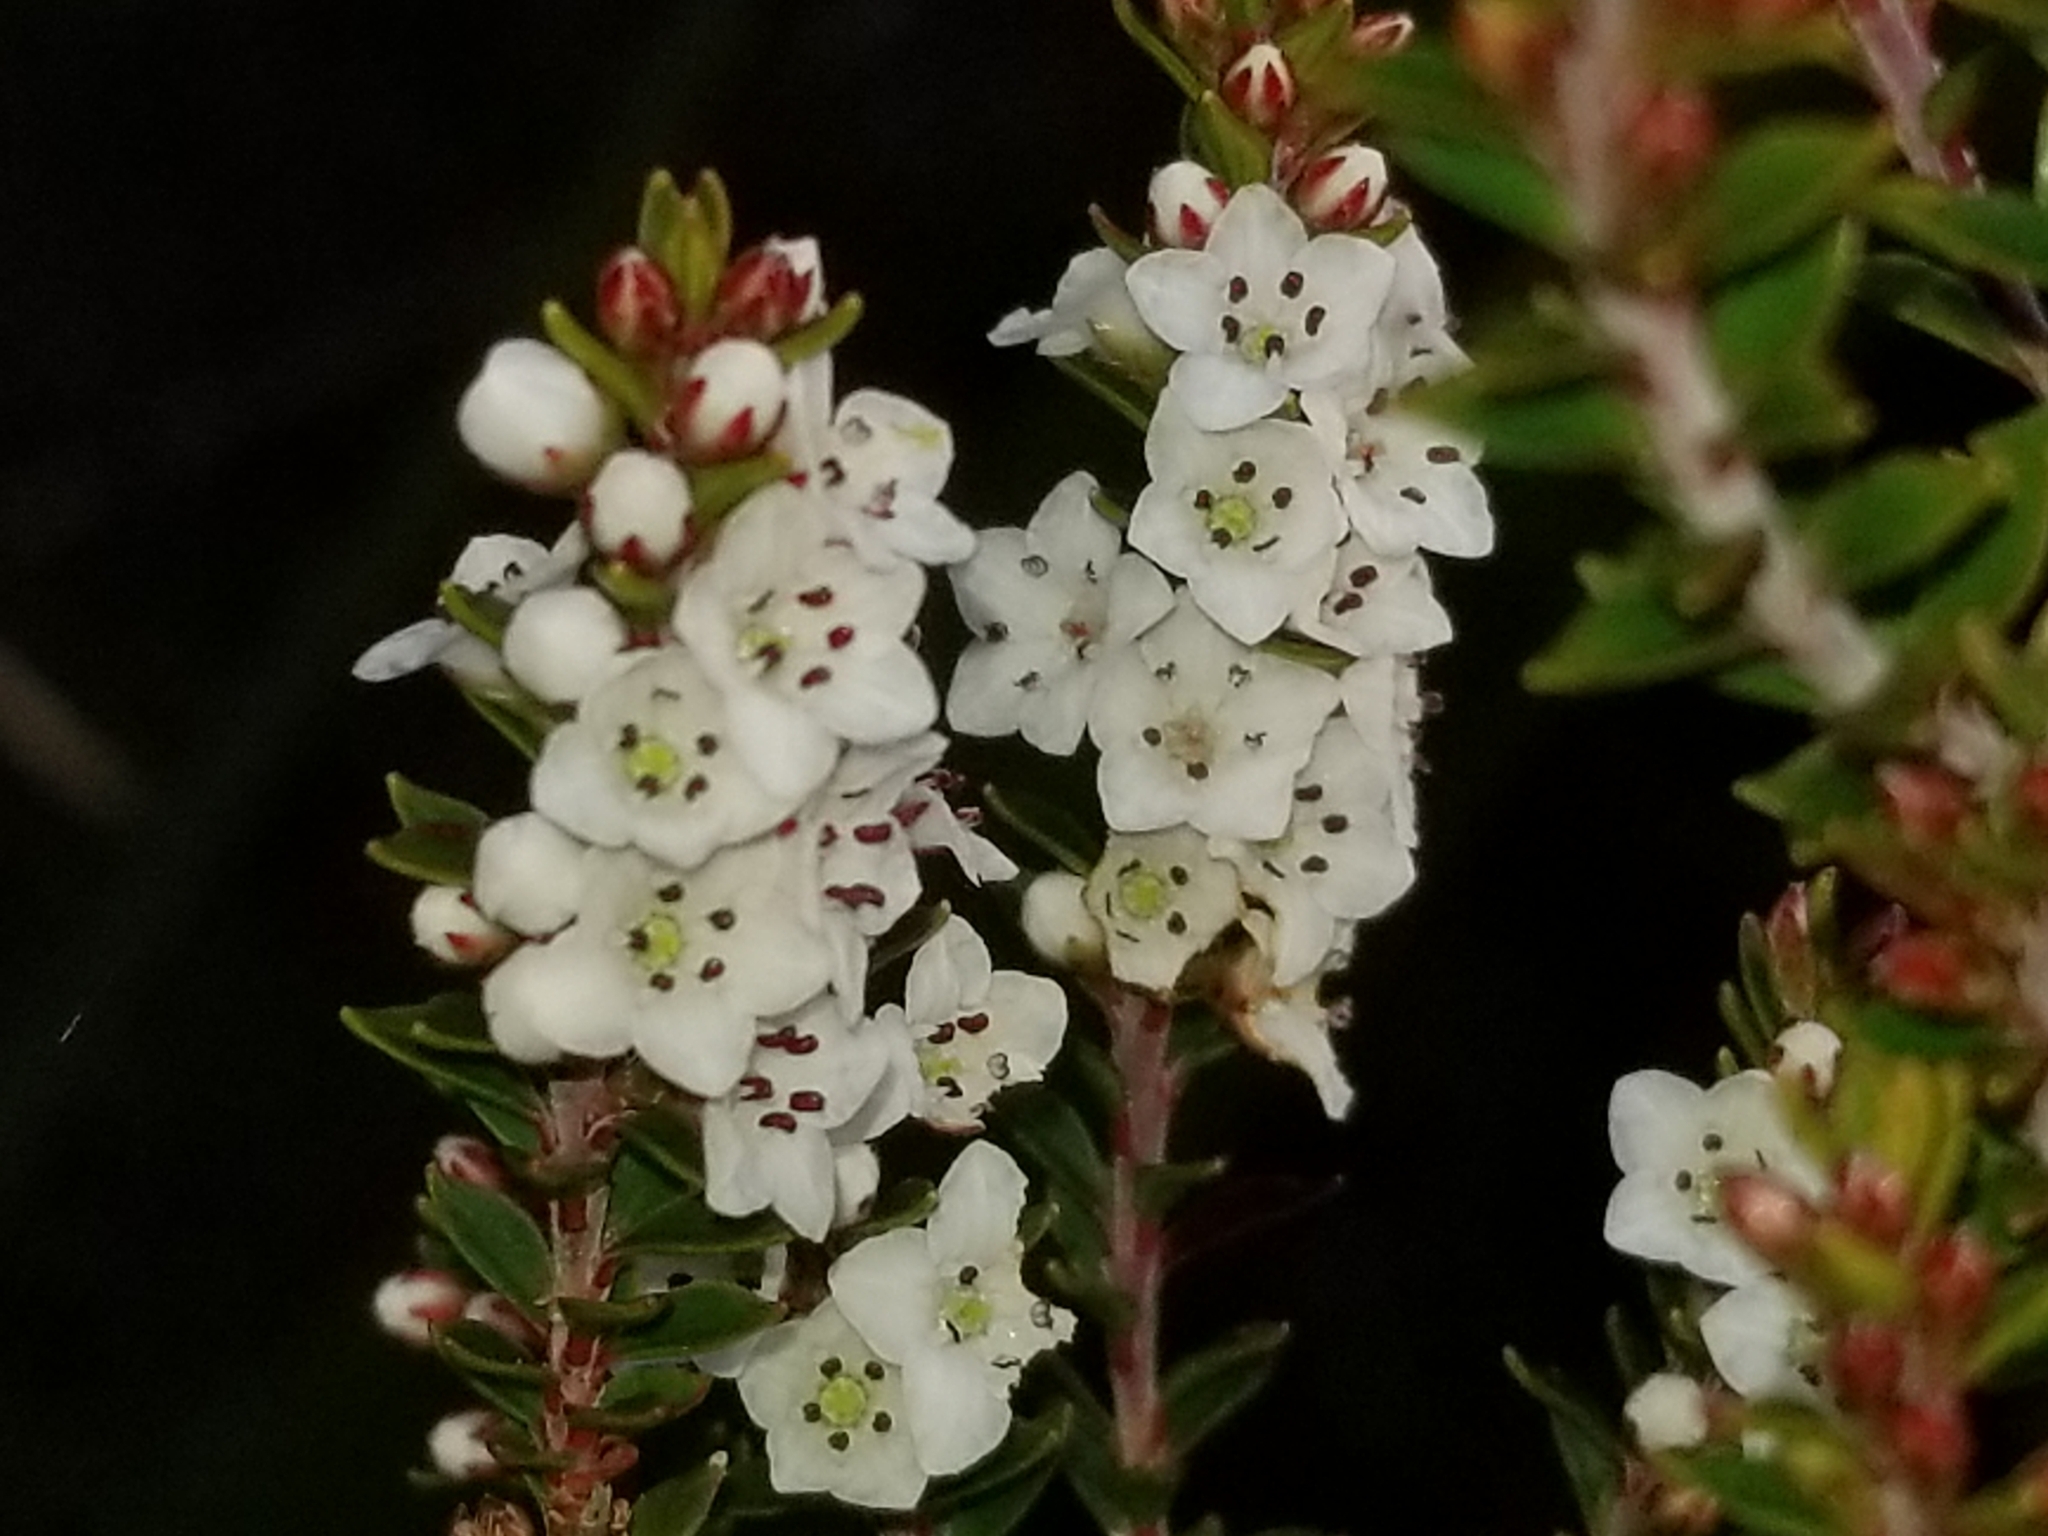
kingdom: Plantae
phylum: Tracheophyta
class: Magnoliopsida
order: Ericales
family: Ericaceae
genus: Epacris
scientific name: Epacris pauciflora
